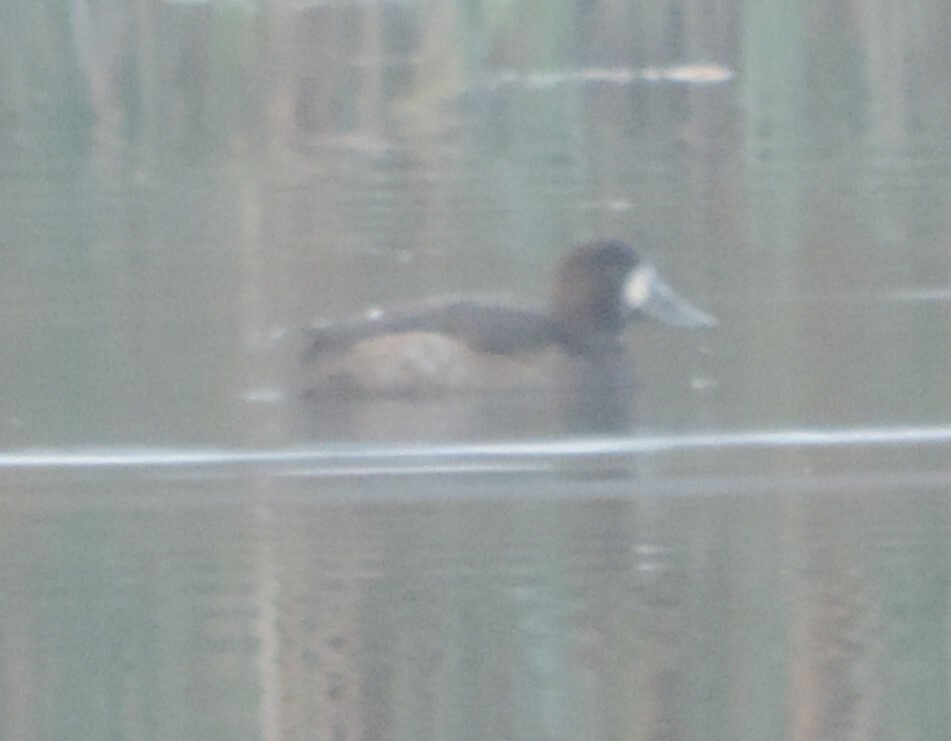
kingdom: Animalia
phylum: Chordata
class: Aves
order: Anseriformes
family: Anatidae
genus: Aythya
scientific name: Aythya marila
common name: Greater scaup
